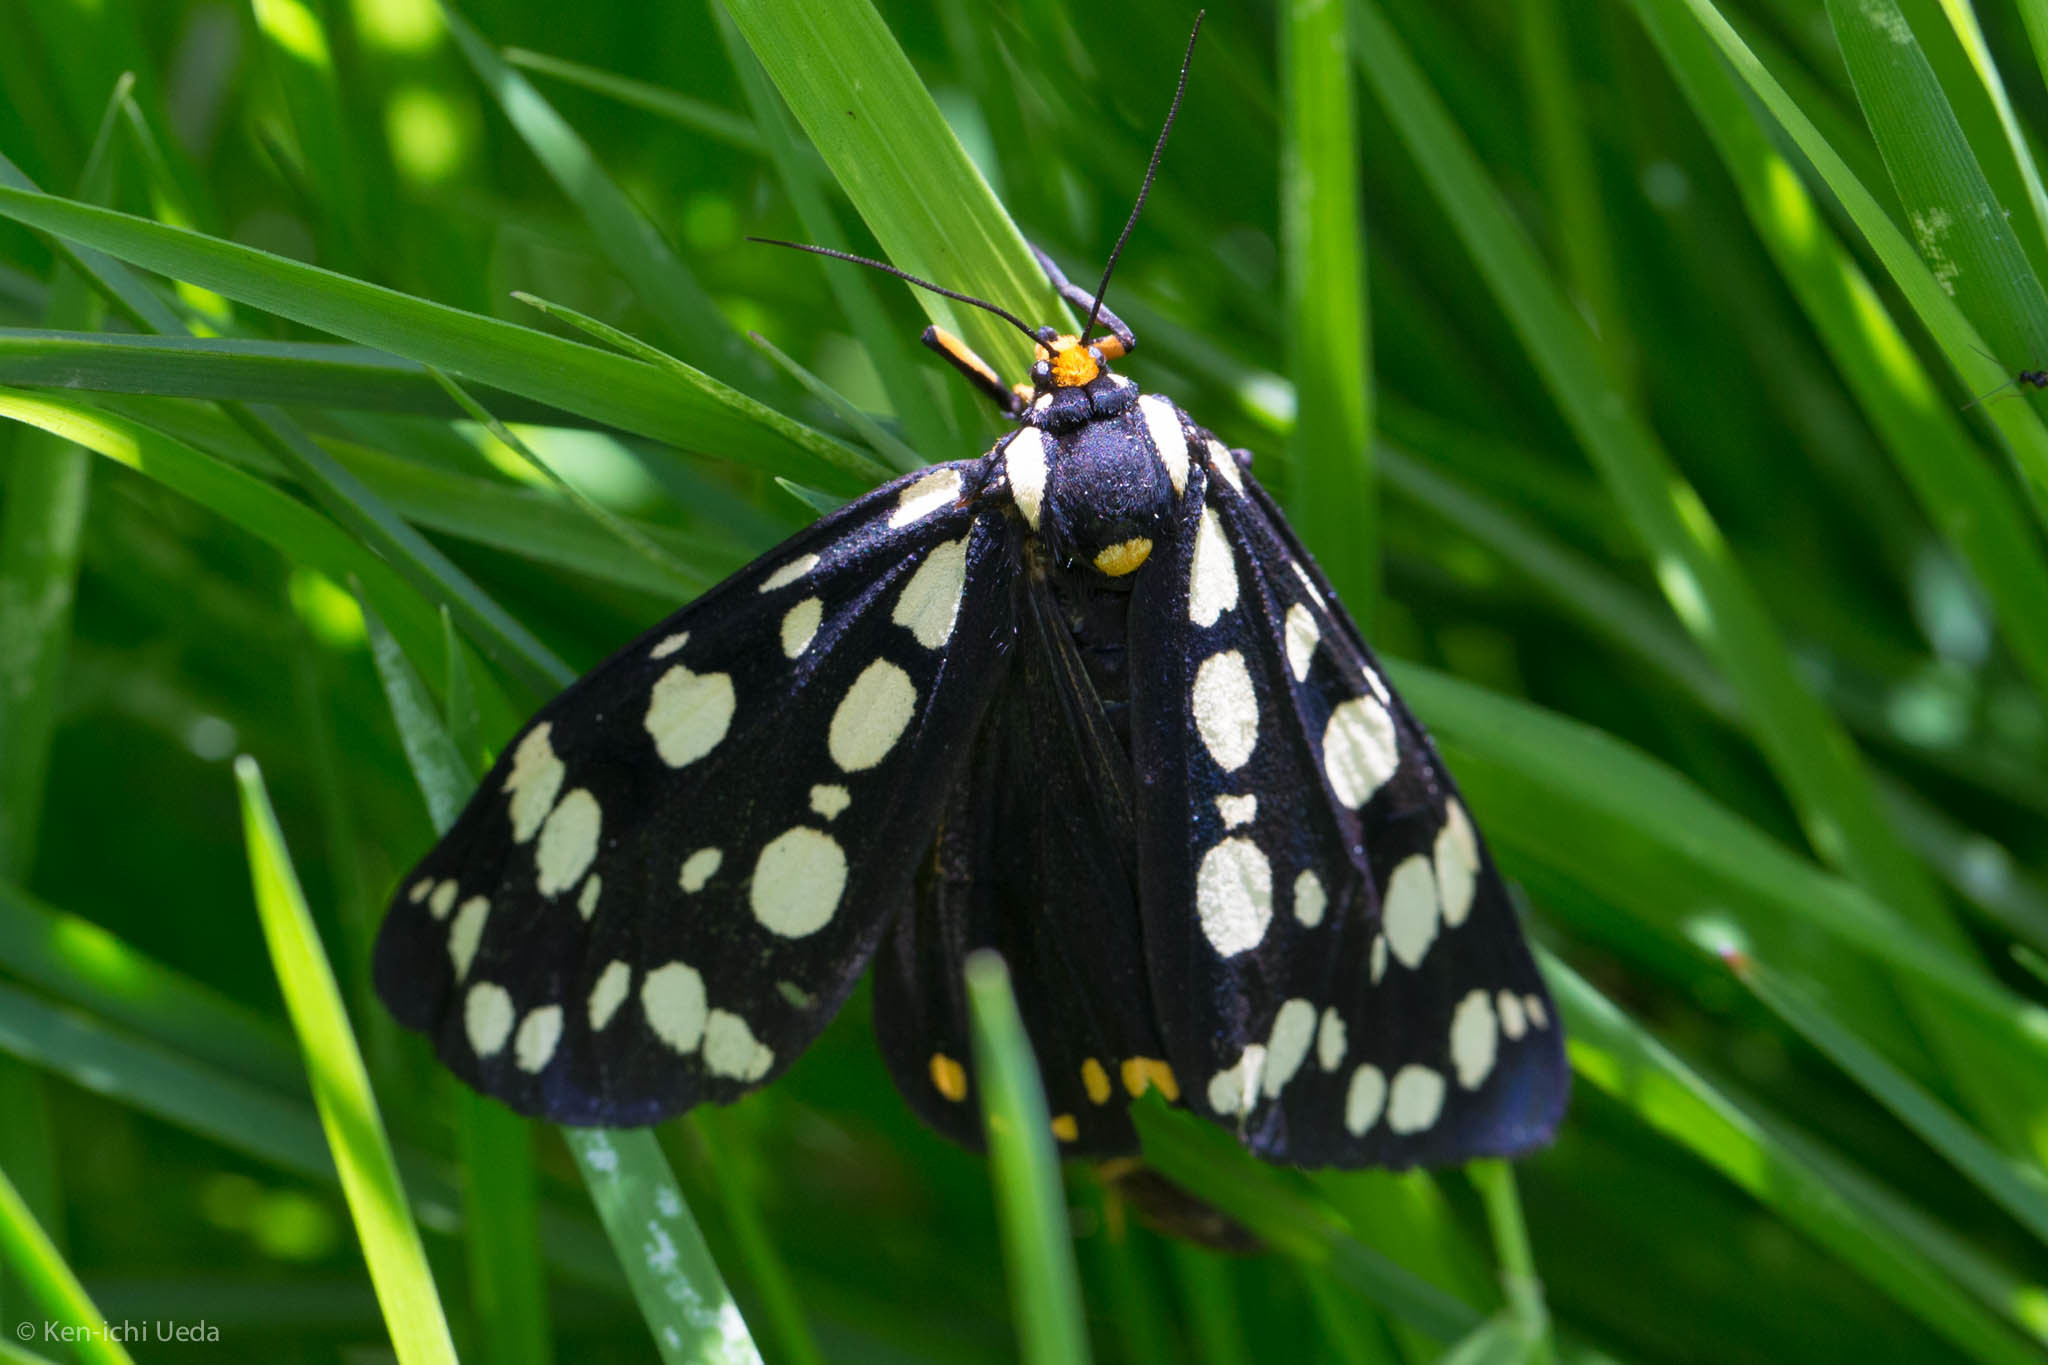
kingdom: Animalia
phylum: Arthropoda
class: Insecta
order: Lepidoptera
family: Erebidae
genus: Arctia
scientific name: Arctia tigrina
